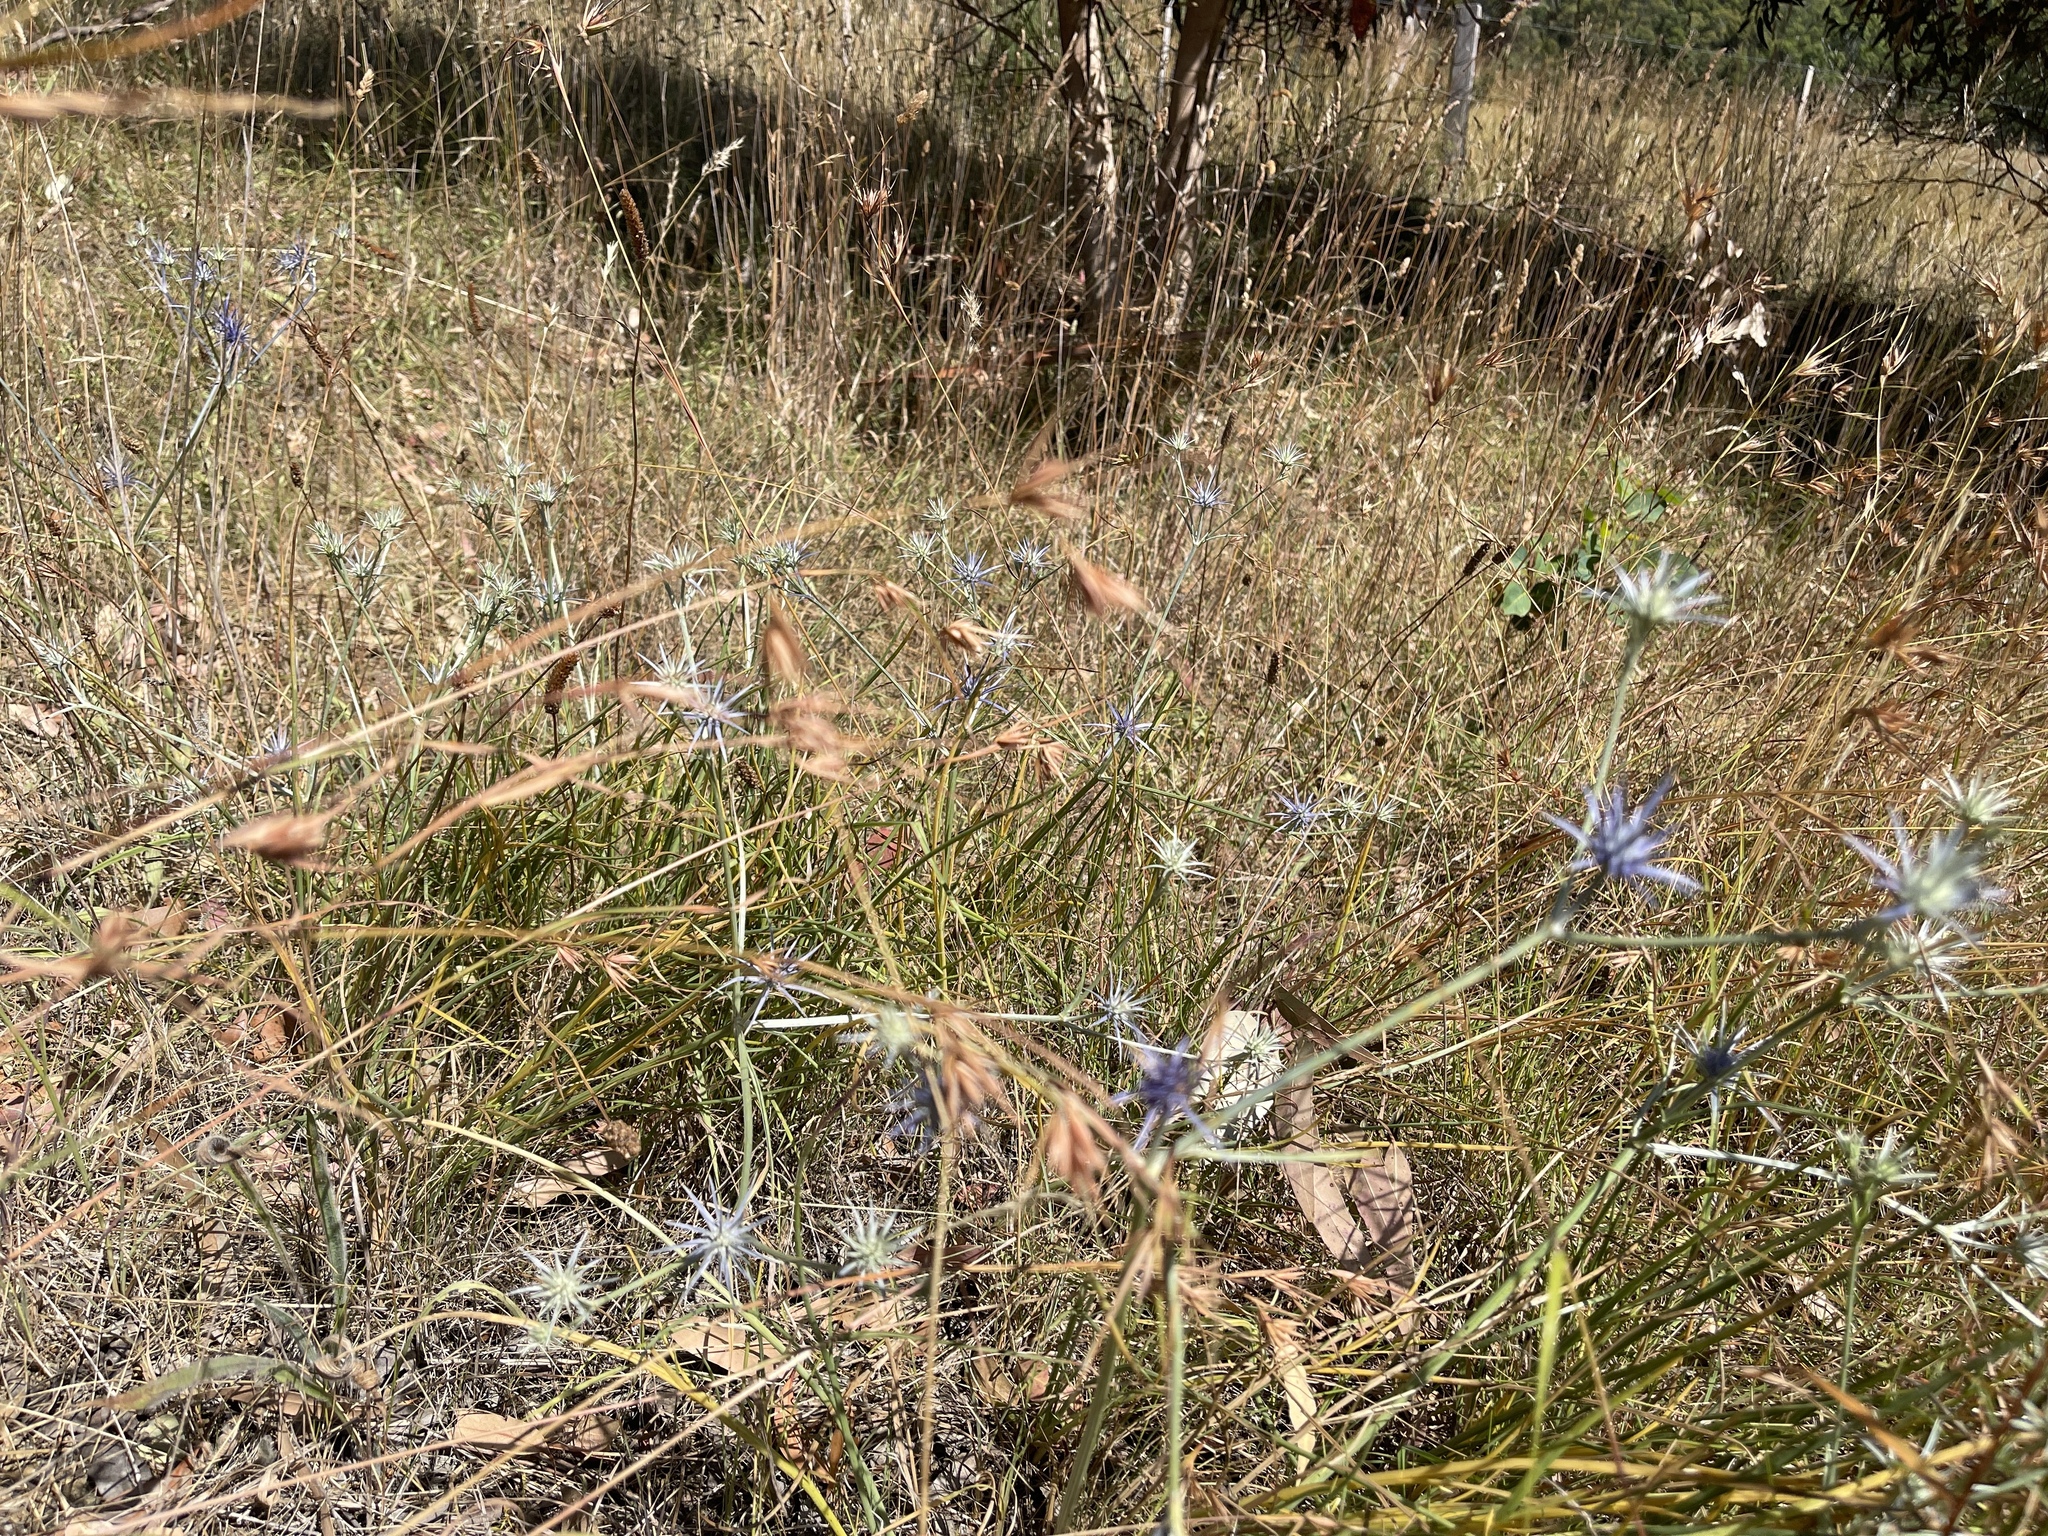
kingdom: Plantae
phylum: Tracheophyta
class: Magnoliopsida
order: Apiales
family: Apiaceae
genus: Eryngium
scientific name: Eryngium ovinum
